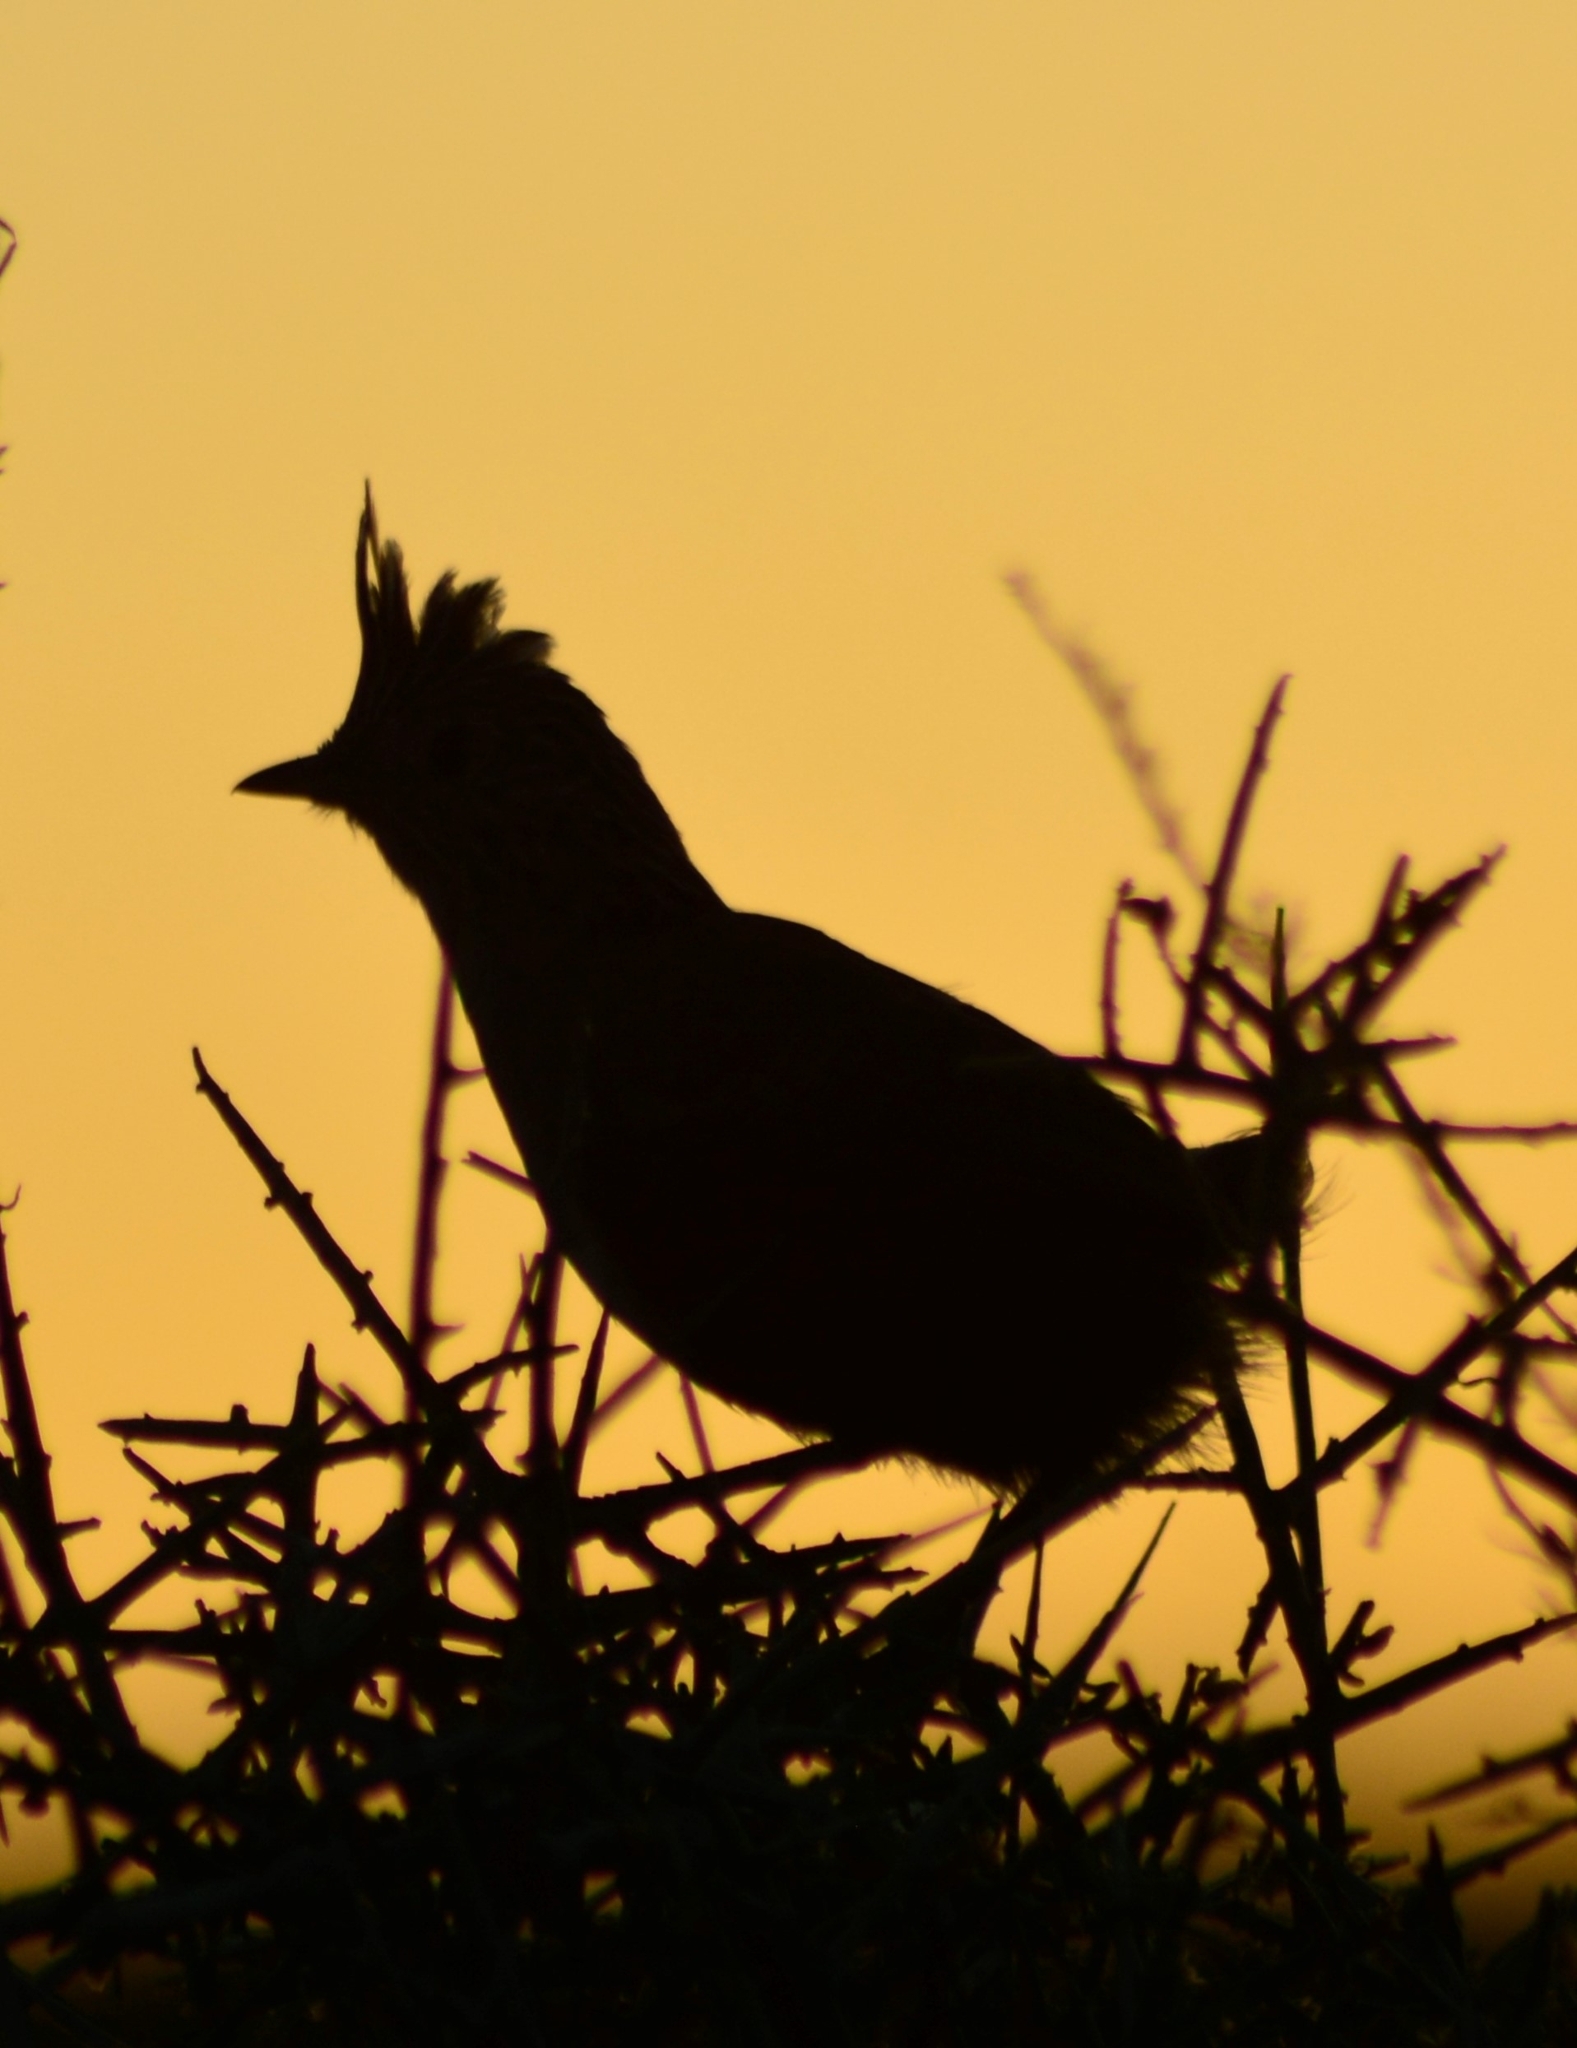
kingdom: Animalia
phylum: Chordata
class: Aves
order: Passeriformes
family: Rhinocryptidae
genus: Rhinocrypta
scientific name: Rhinocrypta lanceolata
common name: Crested gallito
